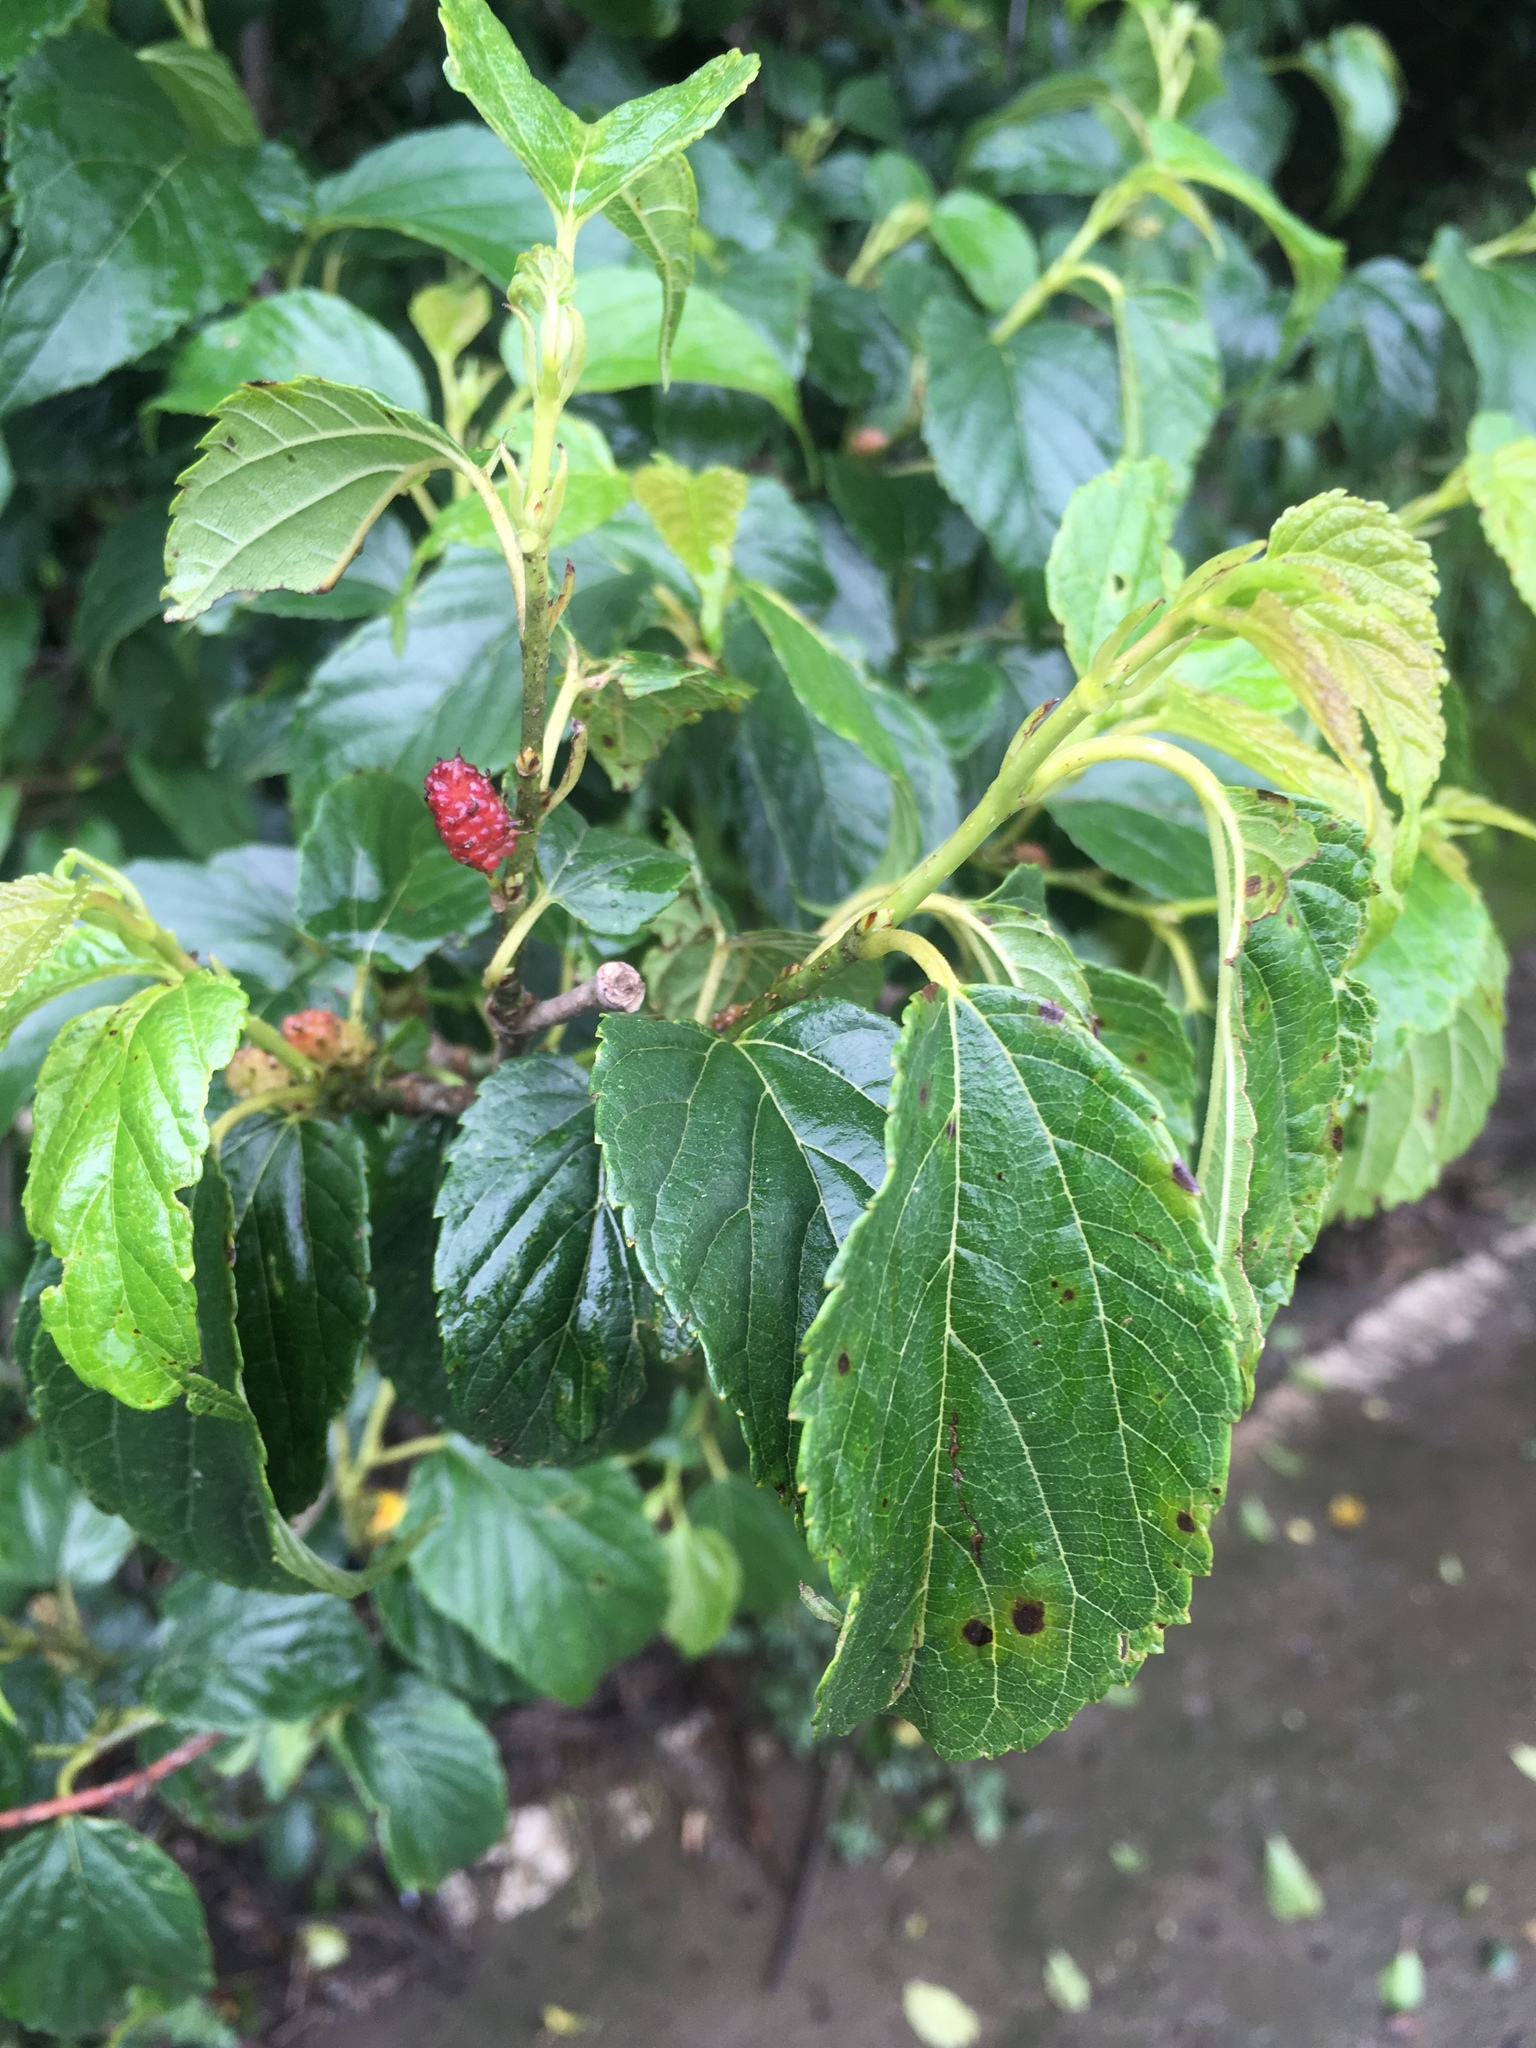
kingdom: Plantae
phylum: Tracheophyta
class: Magnoliopsida
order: Rosales
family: Moraceae
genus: Morus
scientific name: Morus indica
